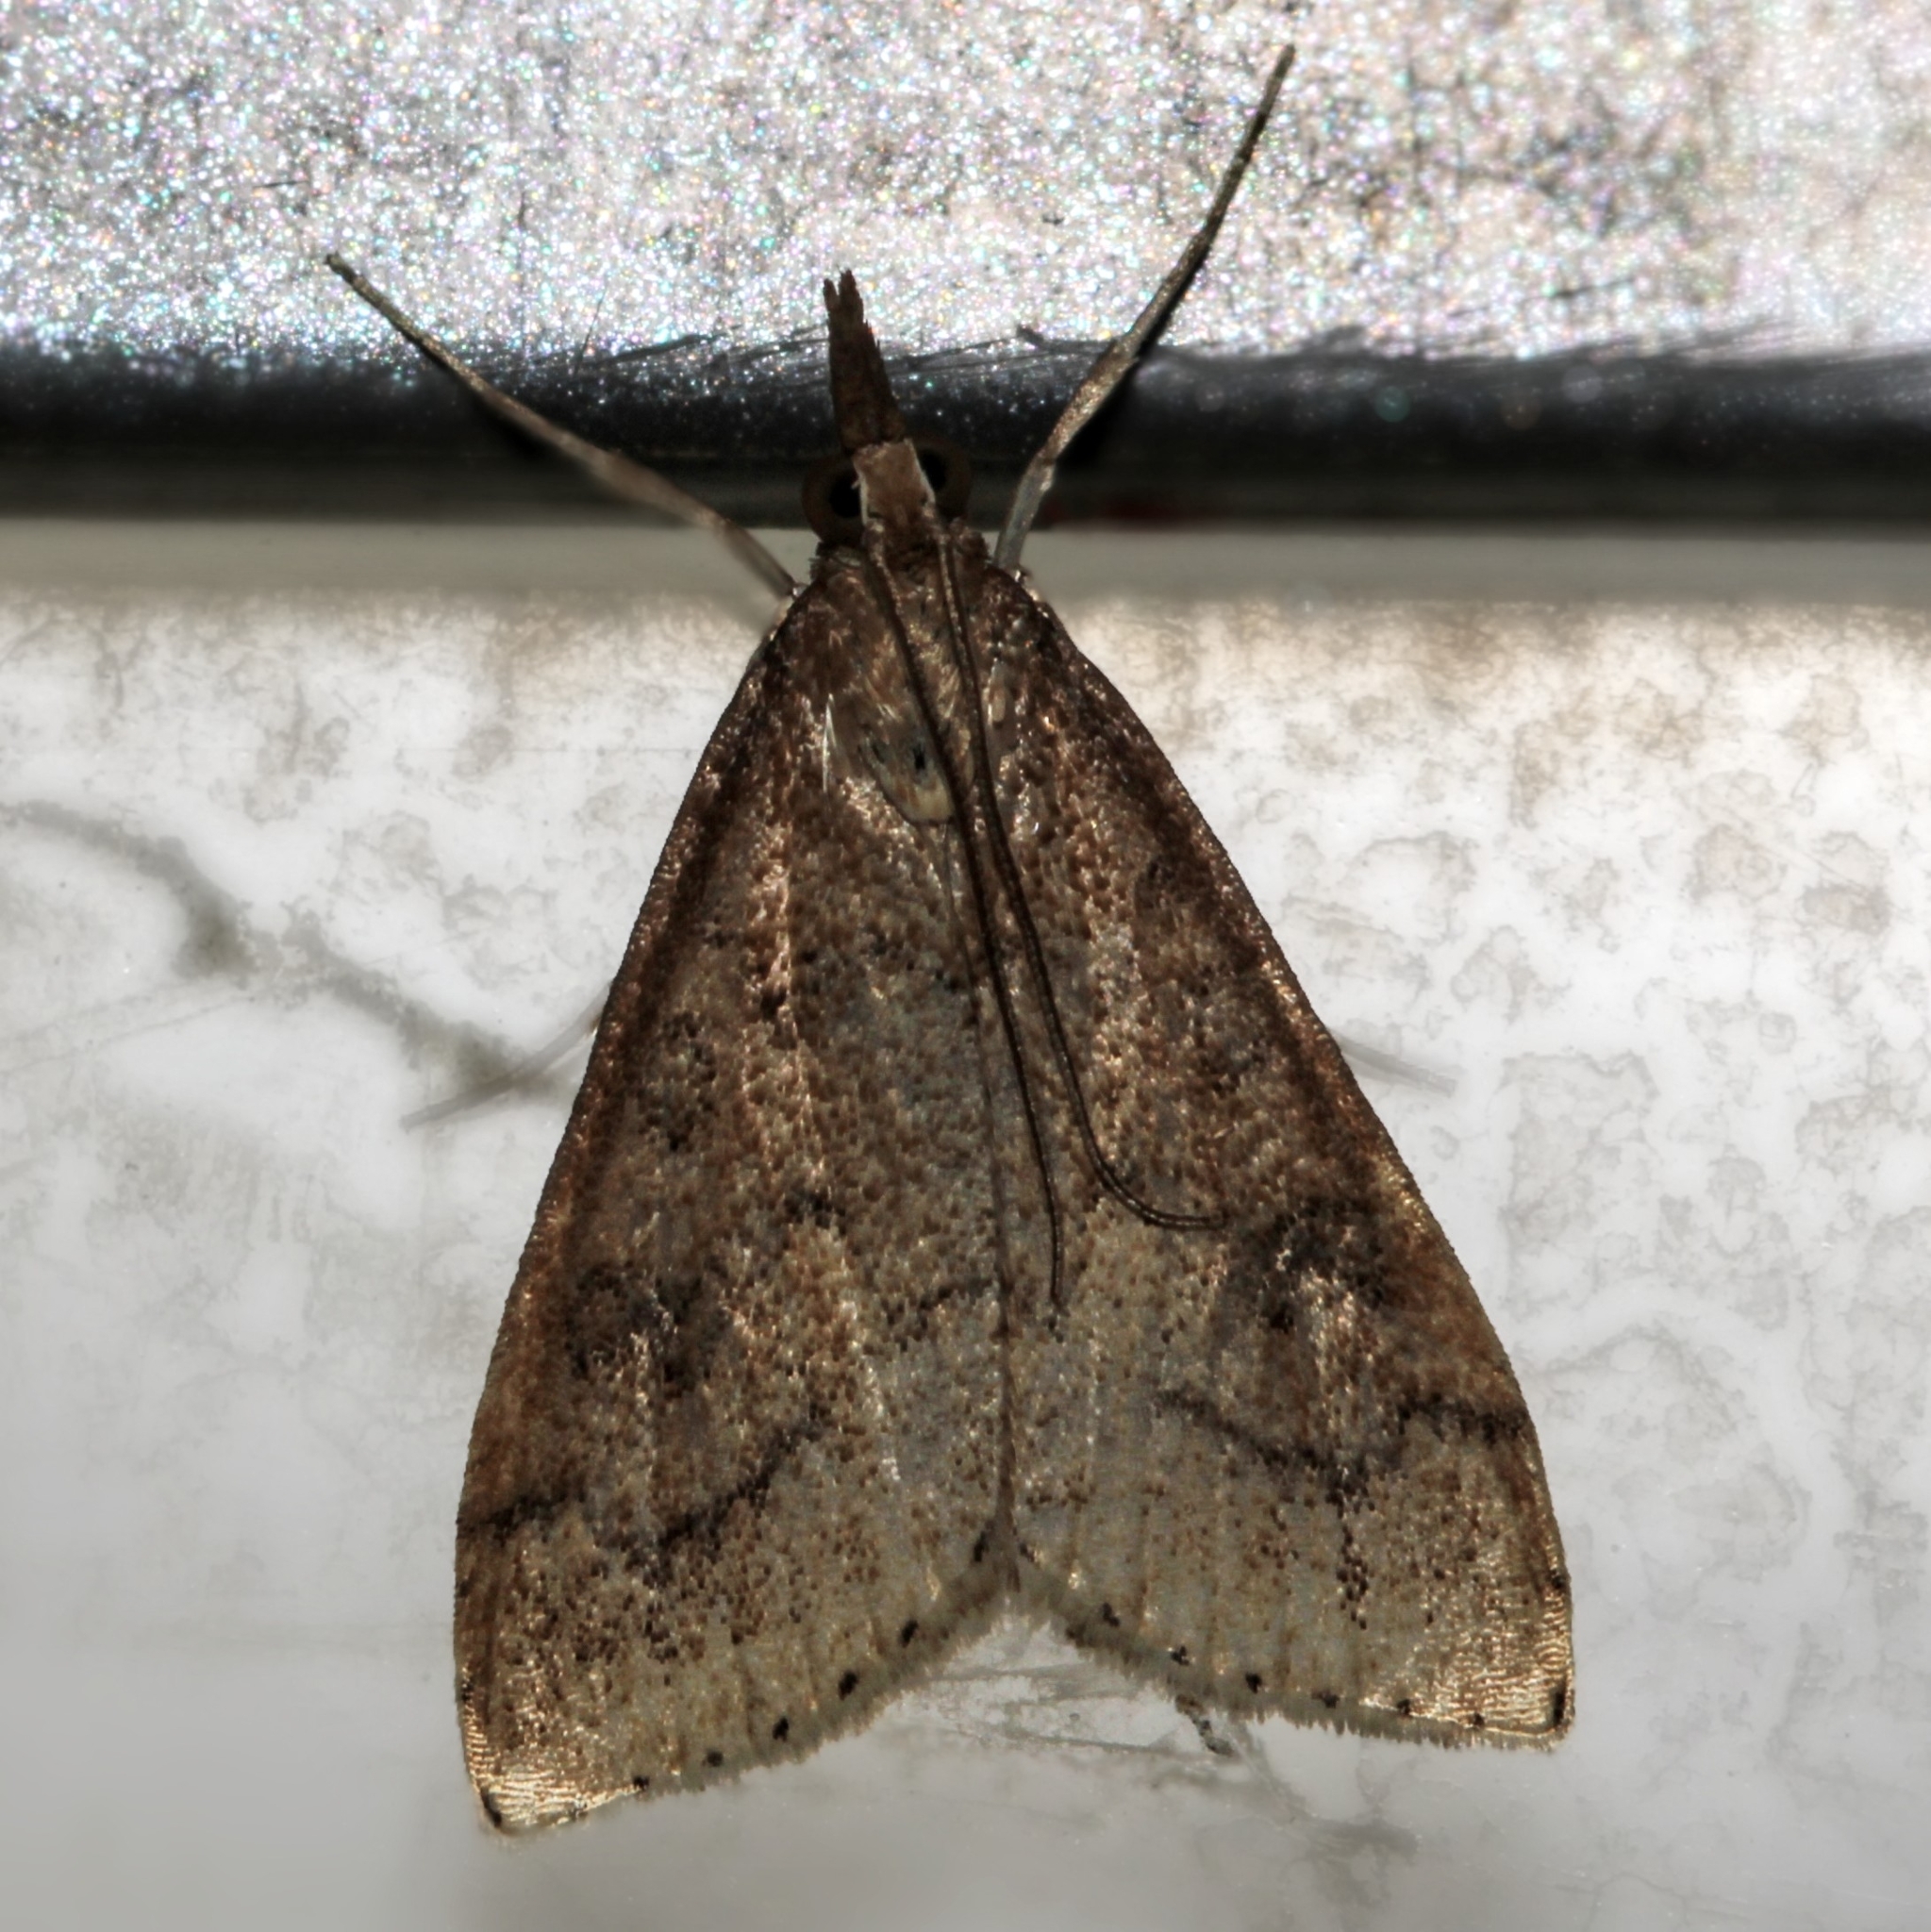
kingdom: Animalia
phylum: Arthropoda
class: Insecta
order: Lepidoptera
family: Crambidae
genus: Udea
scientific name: Udea rubigalis
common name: Celery leaftier moth
